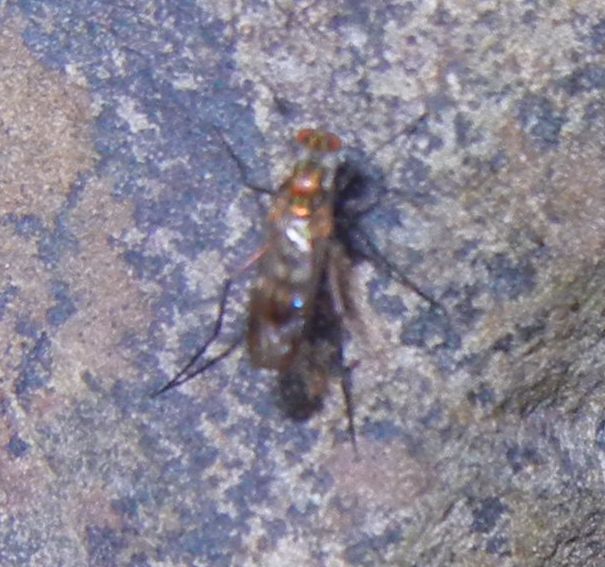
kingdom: Animalia
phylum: Arthropoda
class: Insecta
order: Diptera
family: Dolichopodidae
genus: Liancalus
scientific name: Liancalus virens
